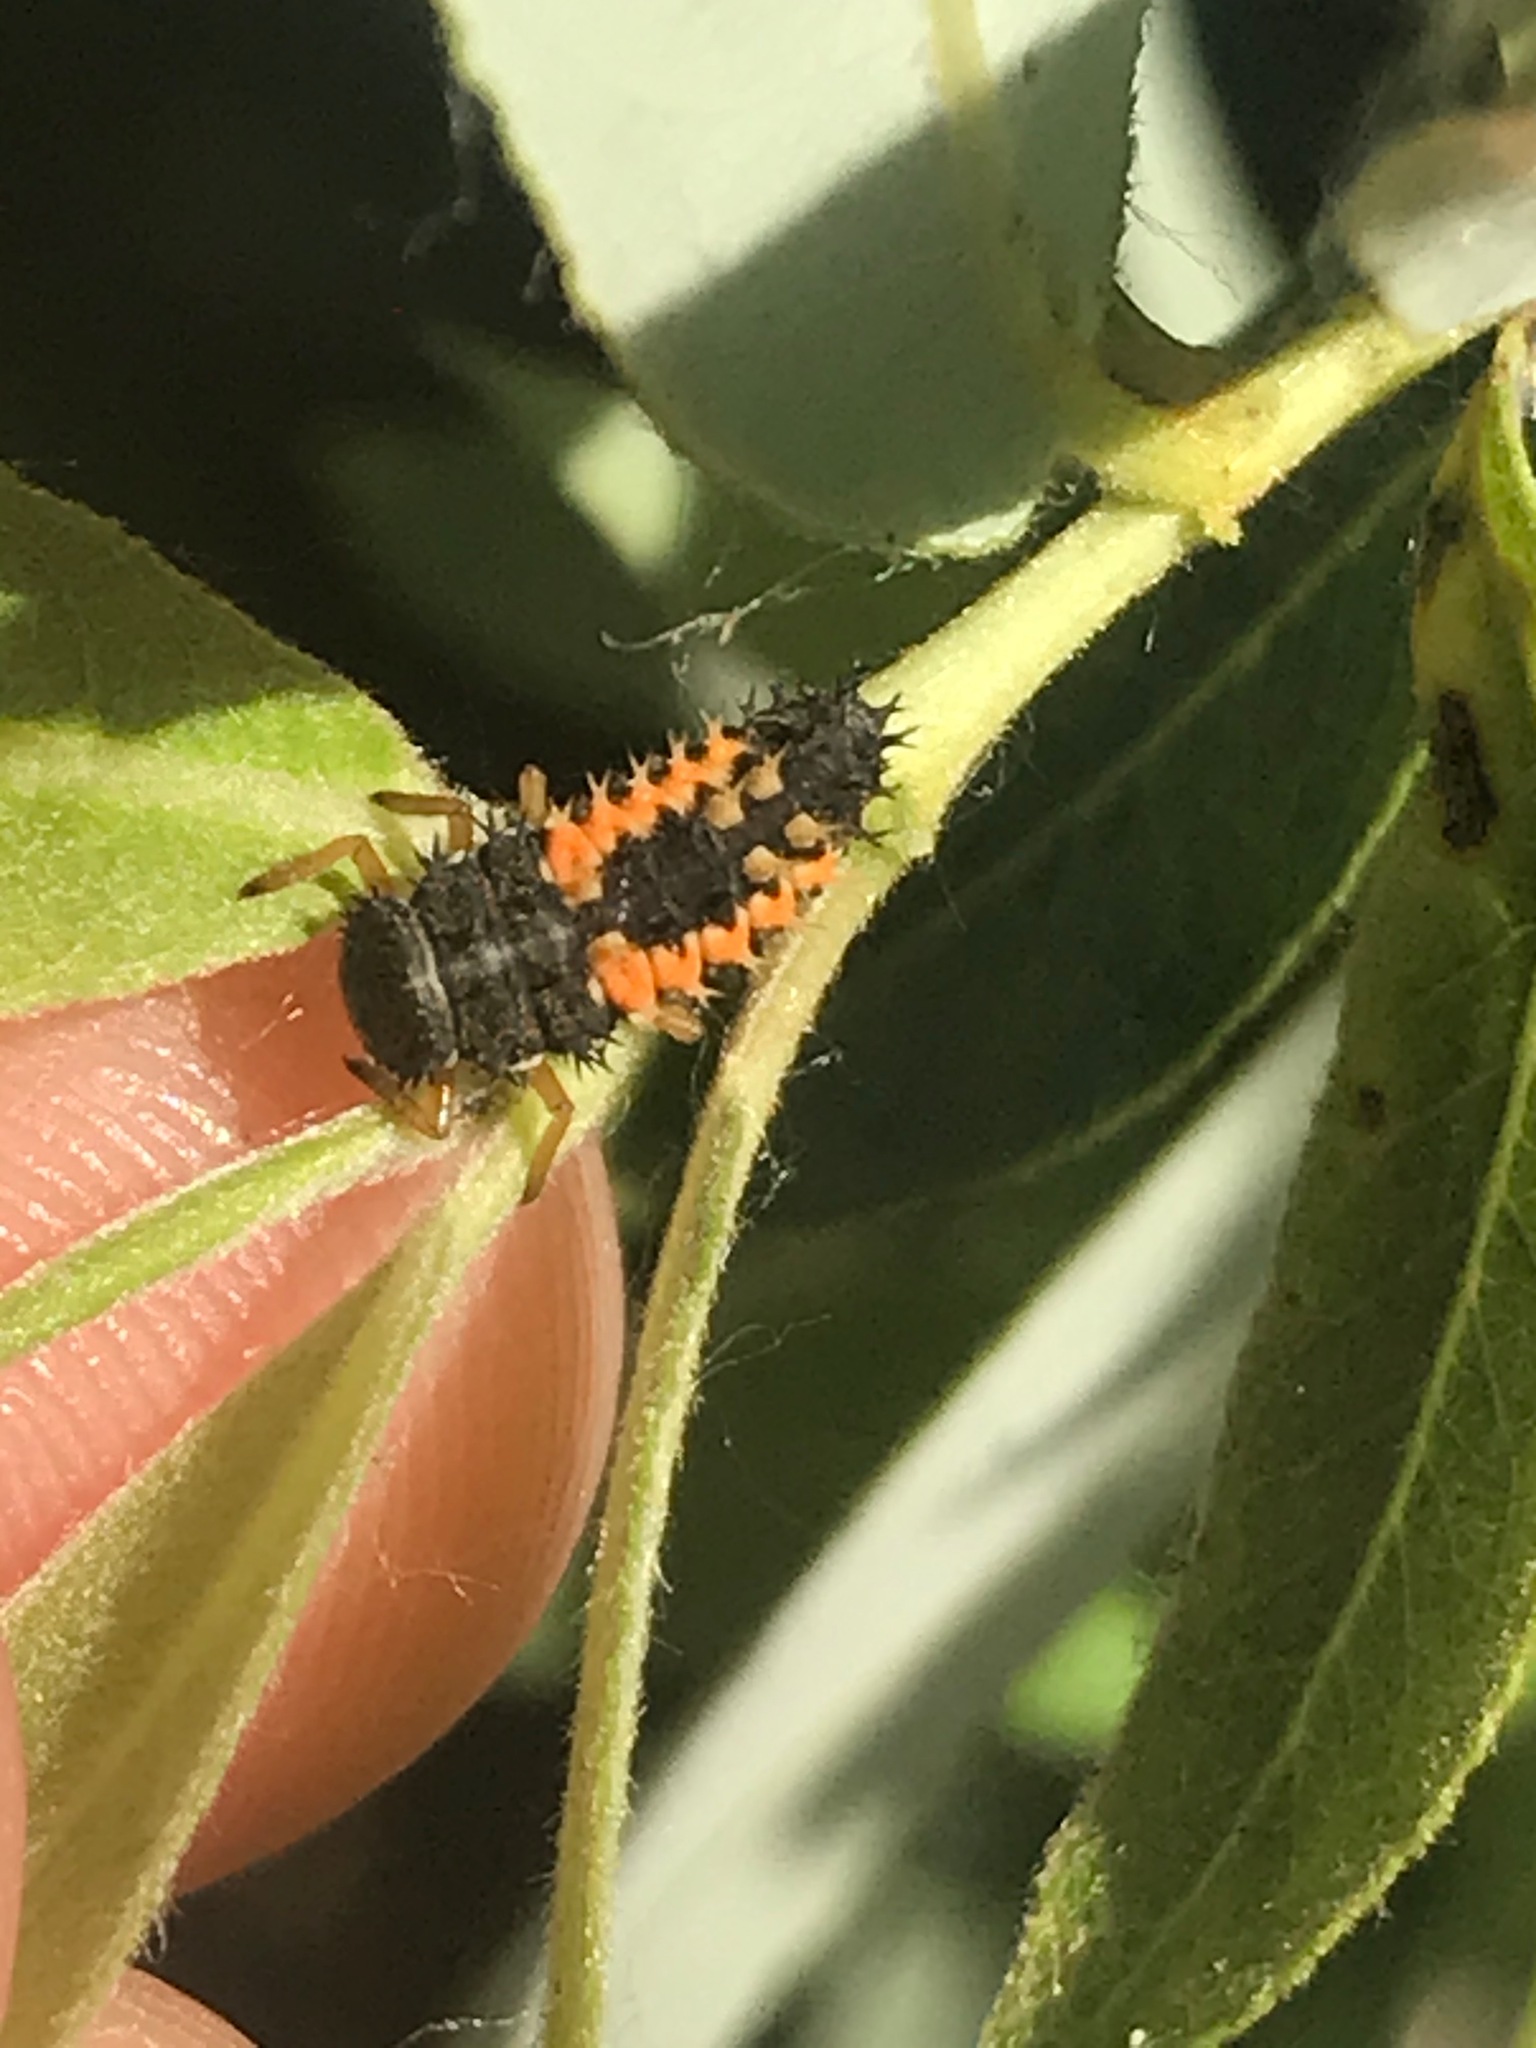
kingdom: Animalia
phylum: Arthropoda
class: Insecta
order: Coleoptera
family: Coccinellidae
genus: Harmonia
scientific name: Harmonia axyridis
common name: Harlequin ladybird
